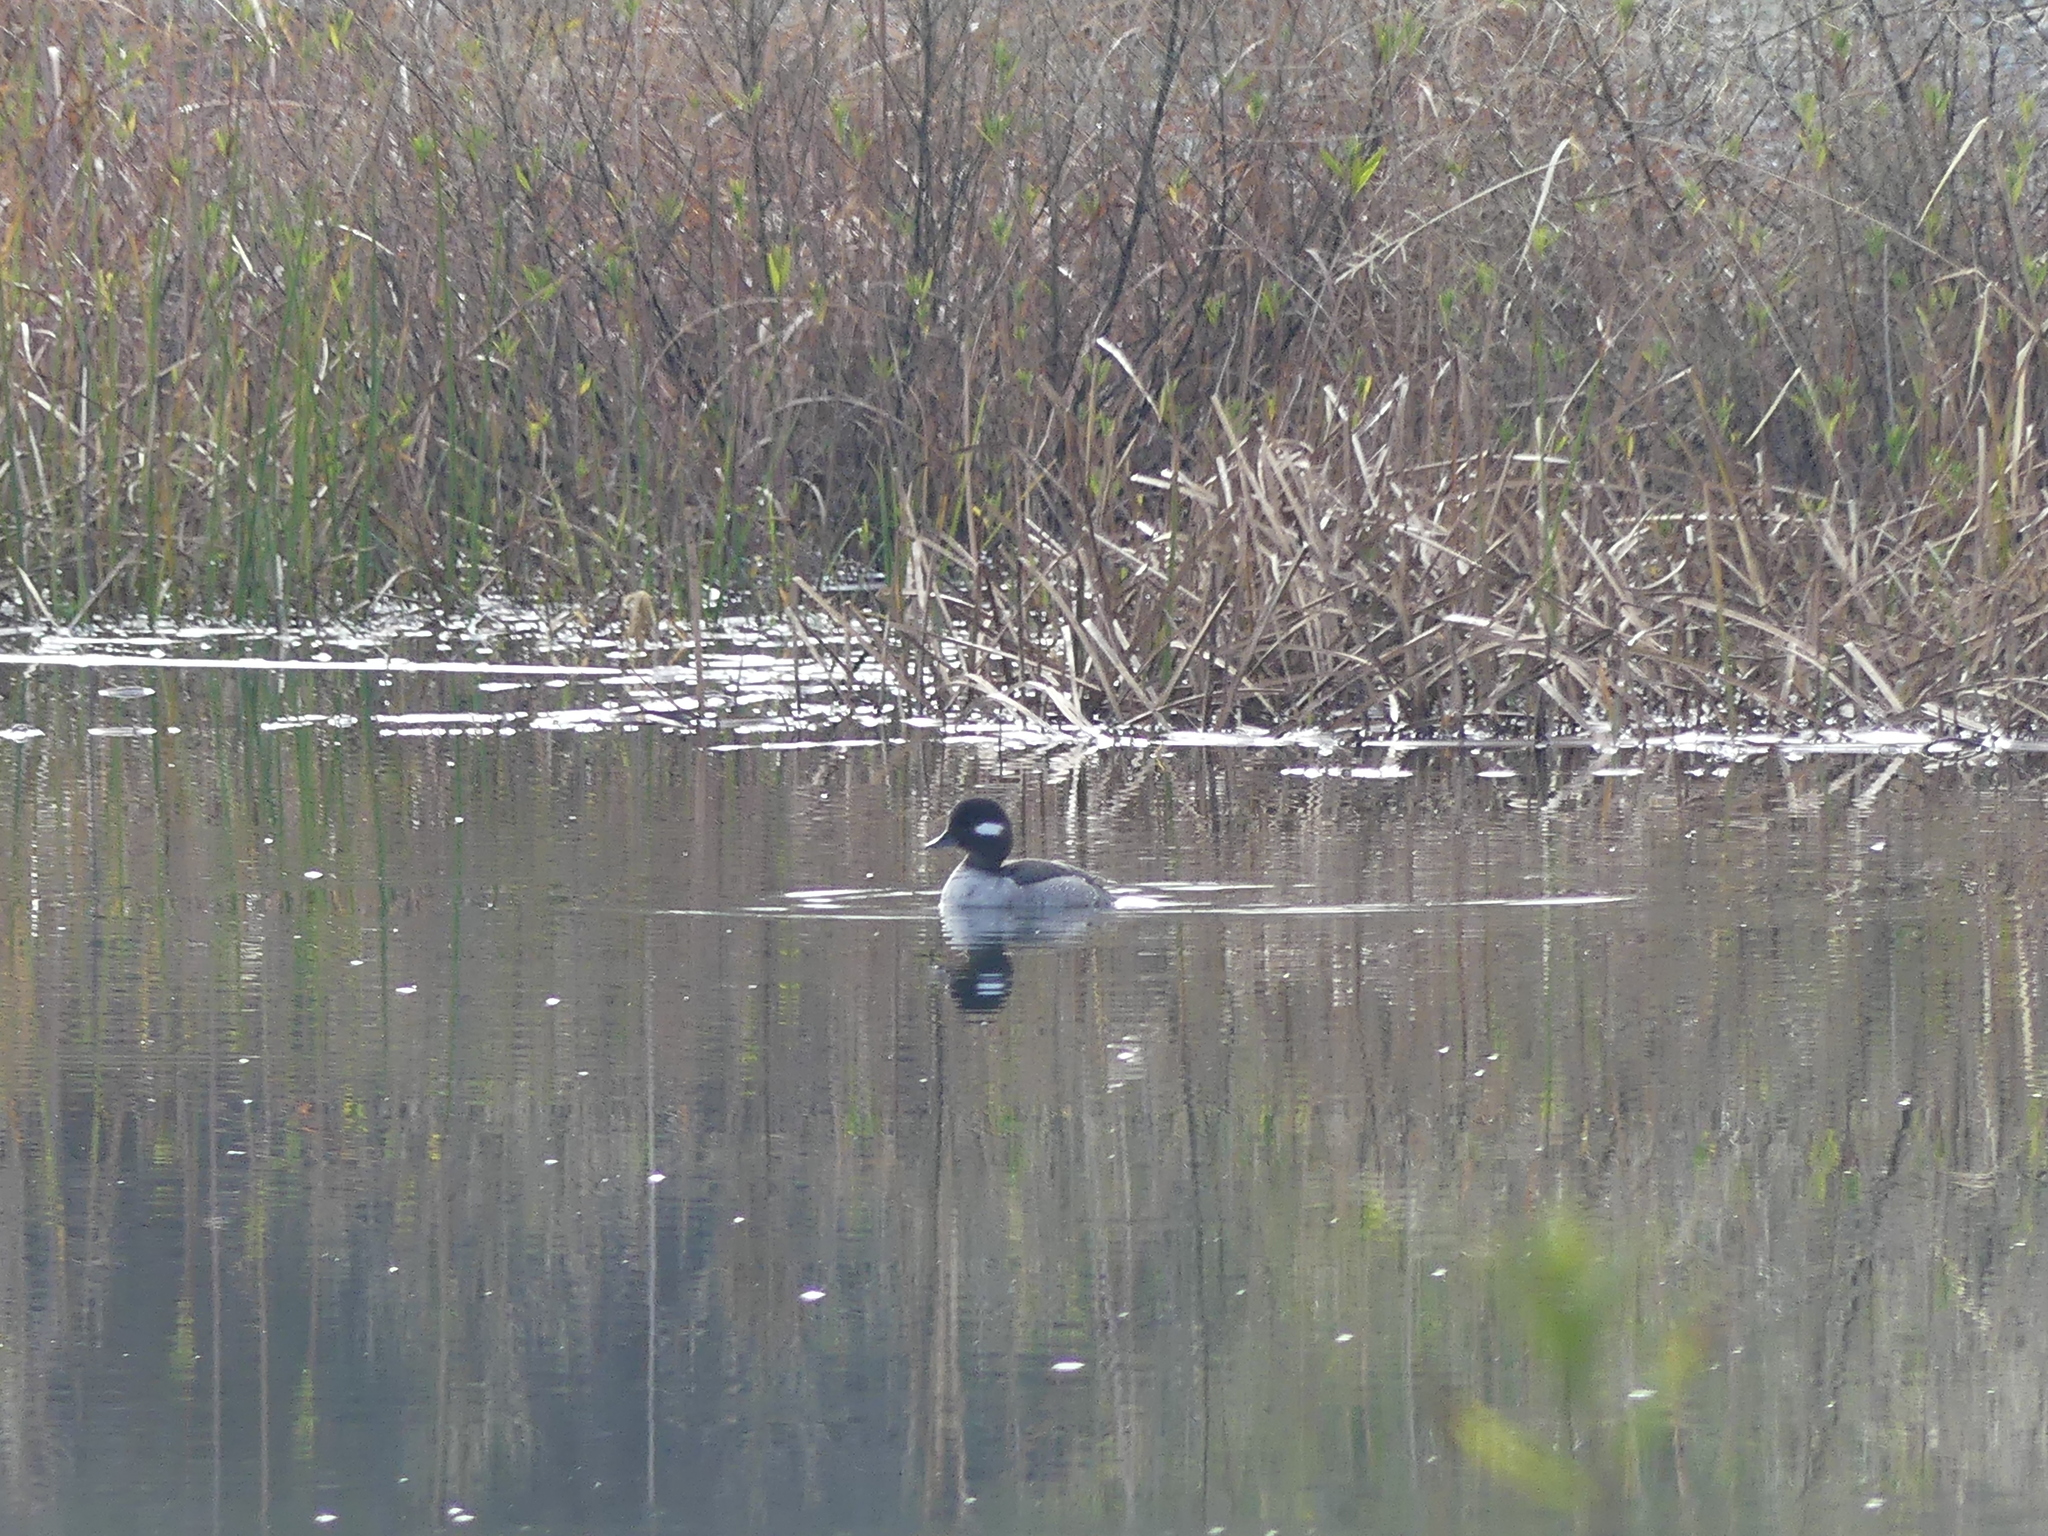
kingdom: Animalia
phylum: Chordata
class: Aves
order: Anseriformes
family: Anatidae
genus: Bucephala
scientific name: Bucephala albeola
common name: Bufflehead
